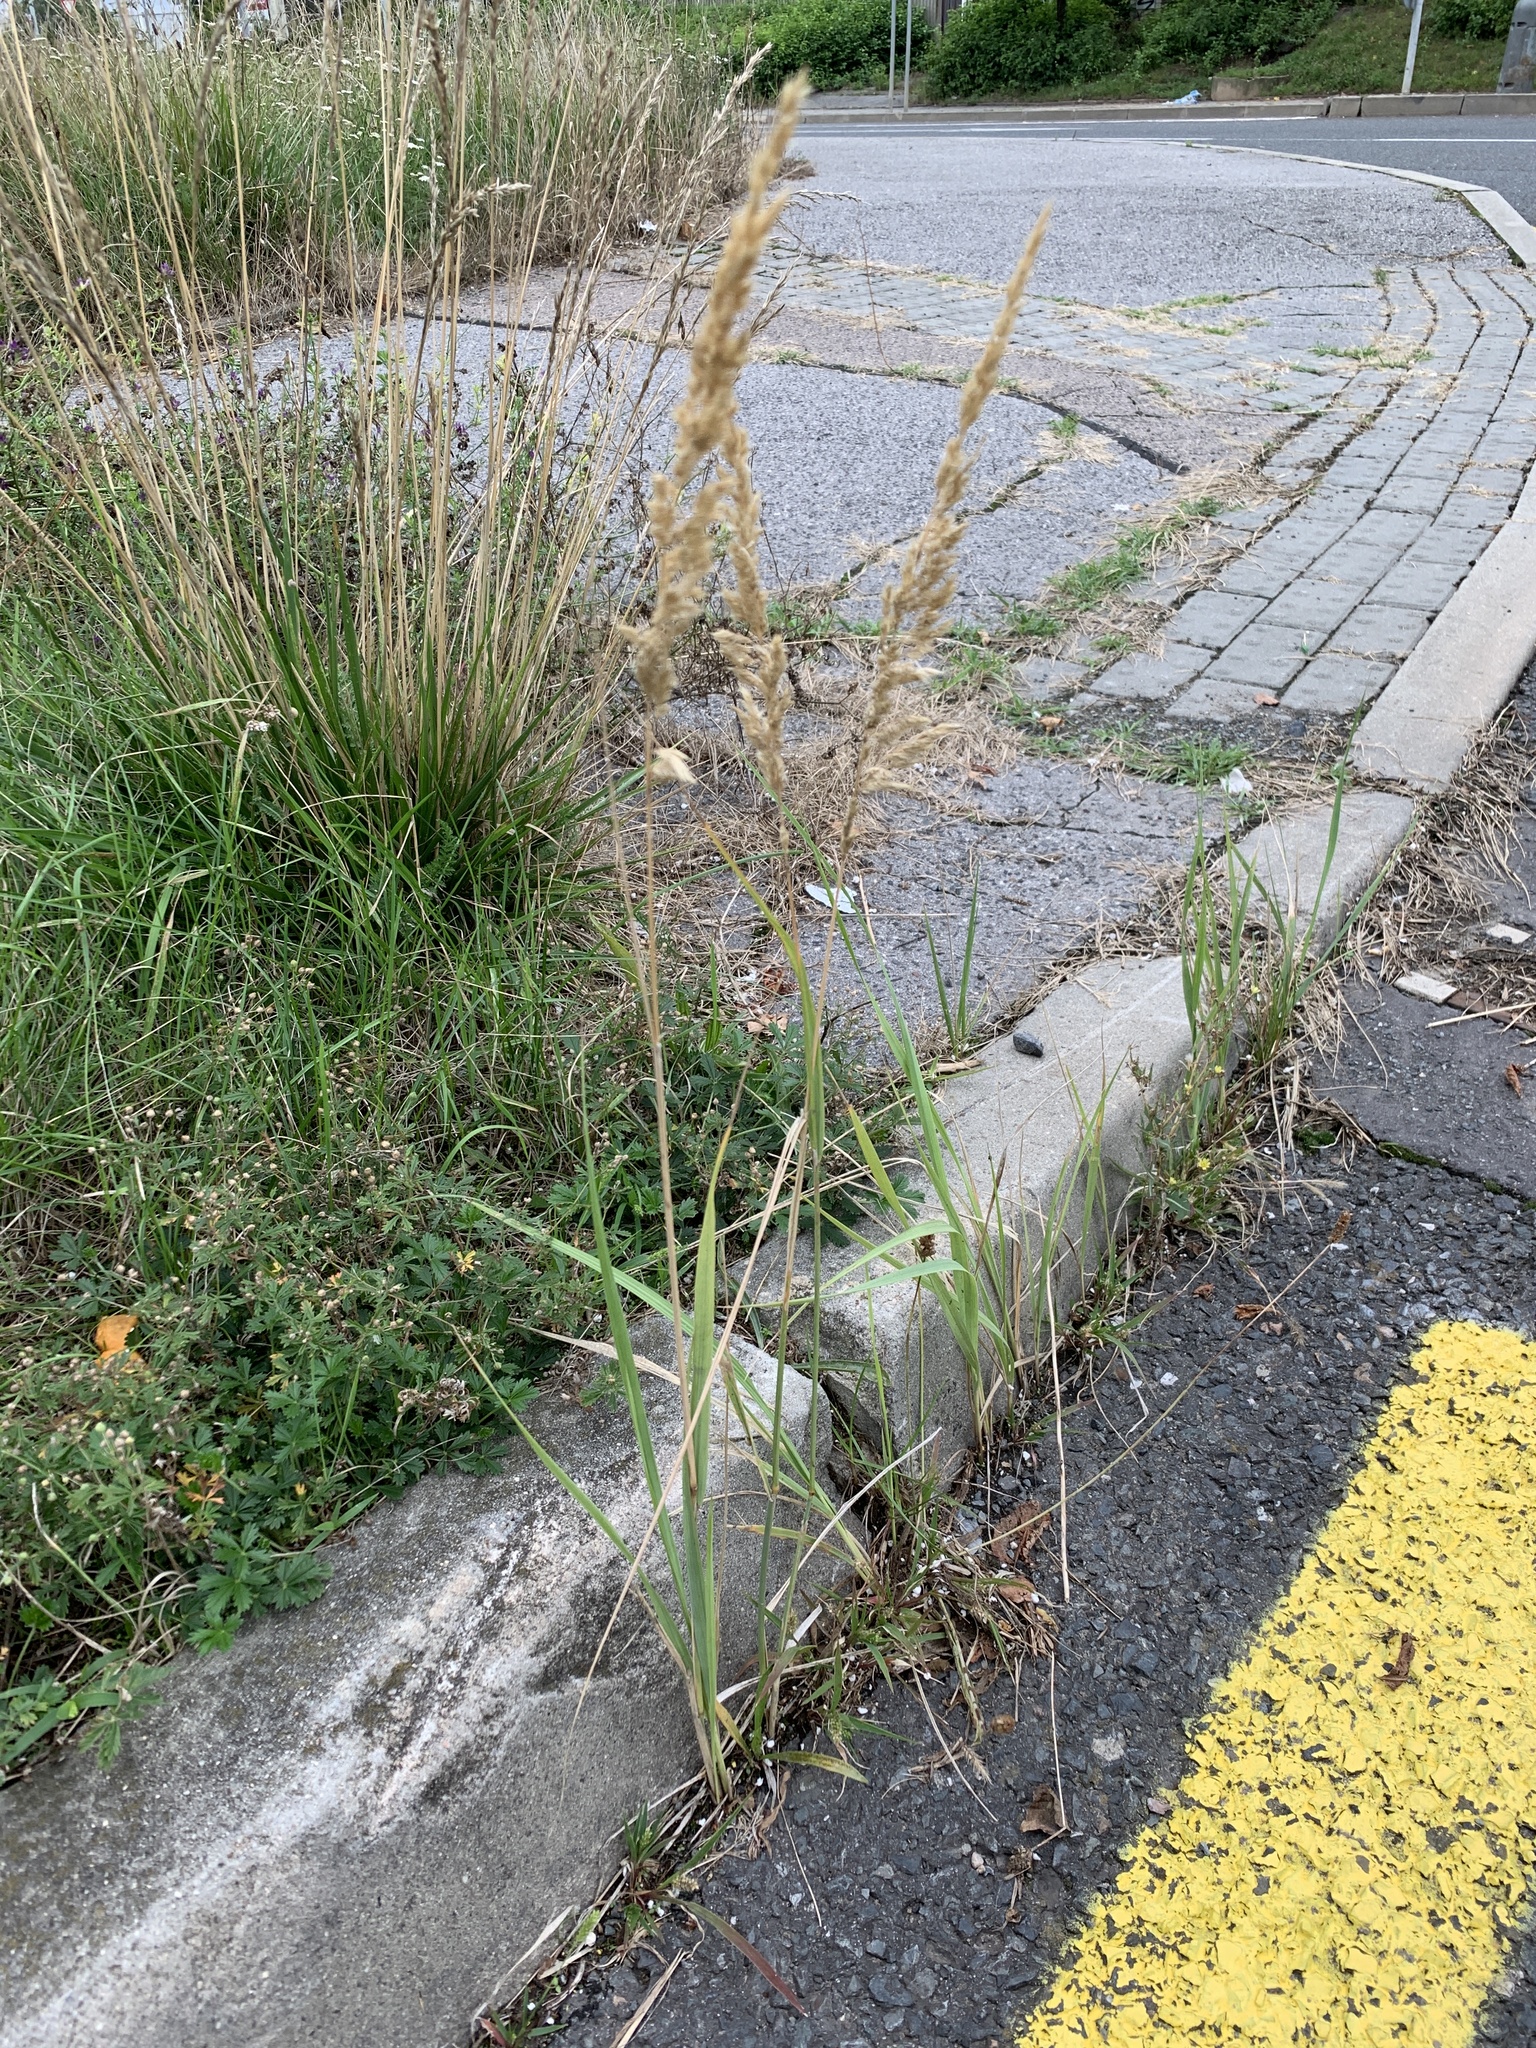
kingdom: Plantae
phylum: Tracheophyta
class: Liliopsida
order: Poales
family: Poaceae
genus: Calamagrostis
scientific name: Calamagrostis epigejos
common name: Wood small-reed
